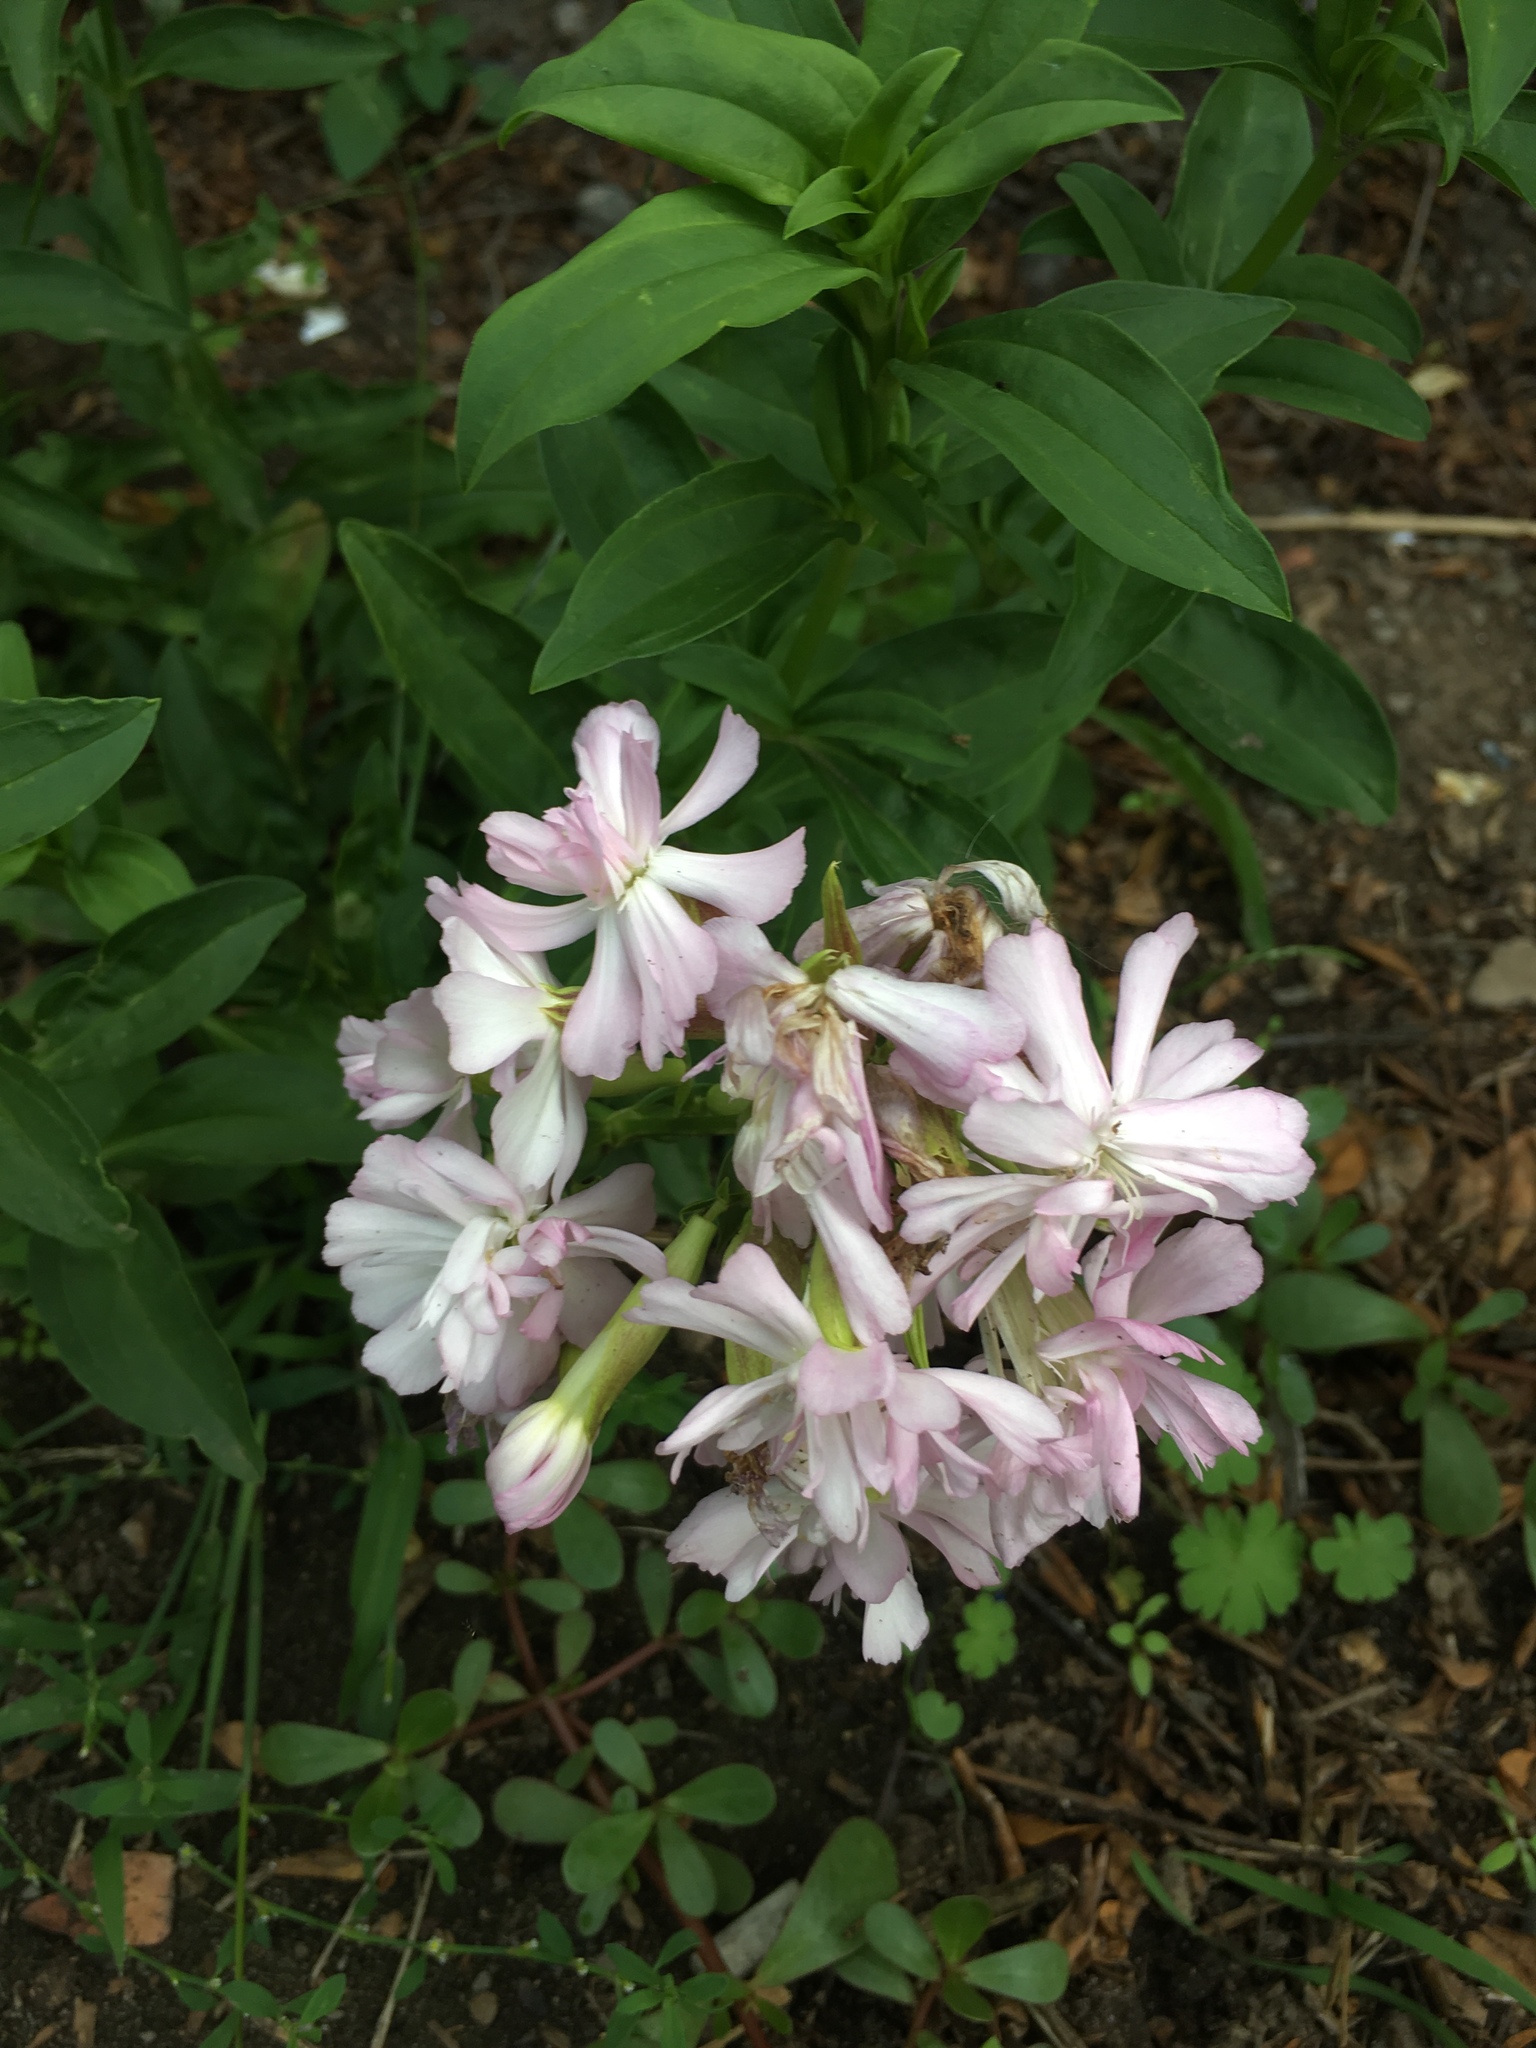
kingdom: Plantae
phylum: Tracheophyta
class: Magnoliopsida
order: Caryophyllales
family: Caryophyllaceae
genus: Saponaria
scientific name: Saponaria officinalis
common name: Soapwort
